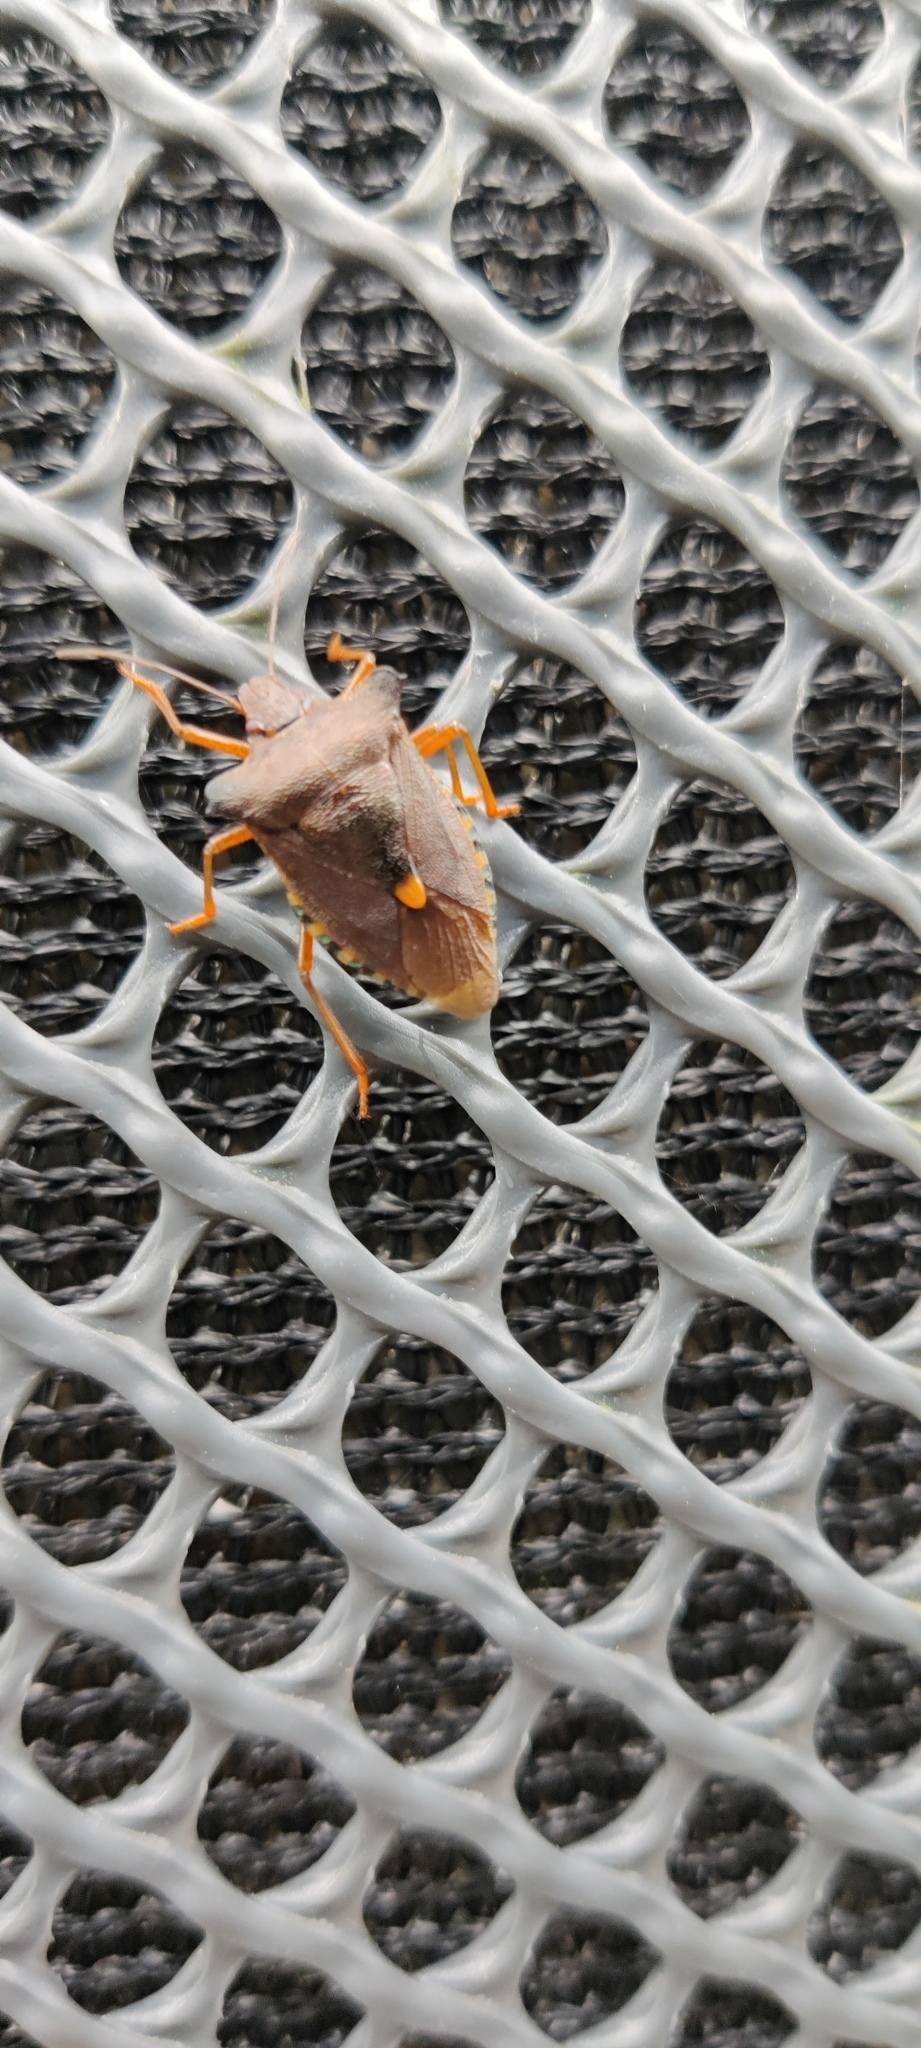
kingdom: Animalia
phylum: Arthropoda
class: Insecta
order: Hemiptera
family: Pentatomidae
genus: Pentatoma
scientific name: Pentatoma rufipes
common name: Forest bug
